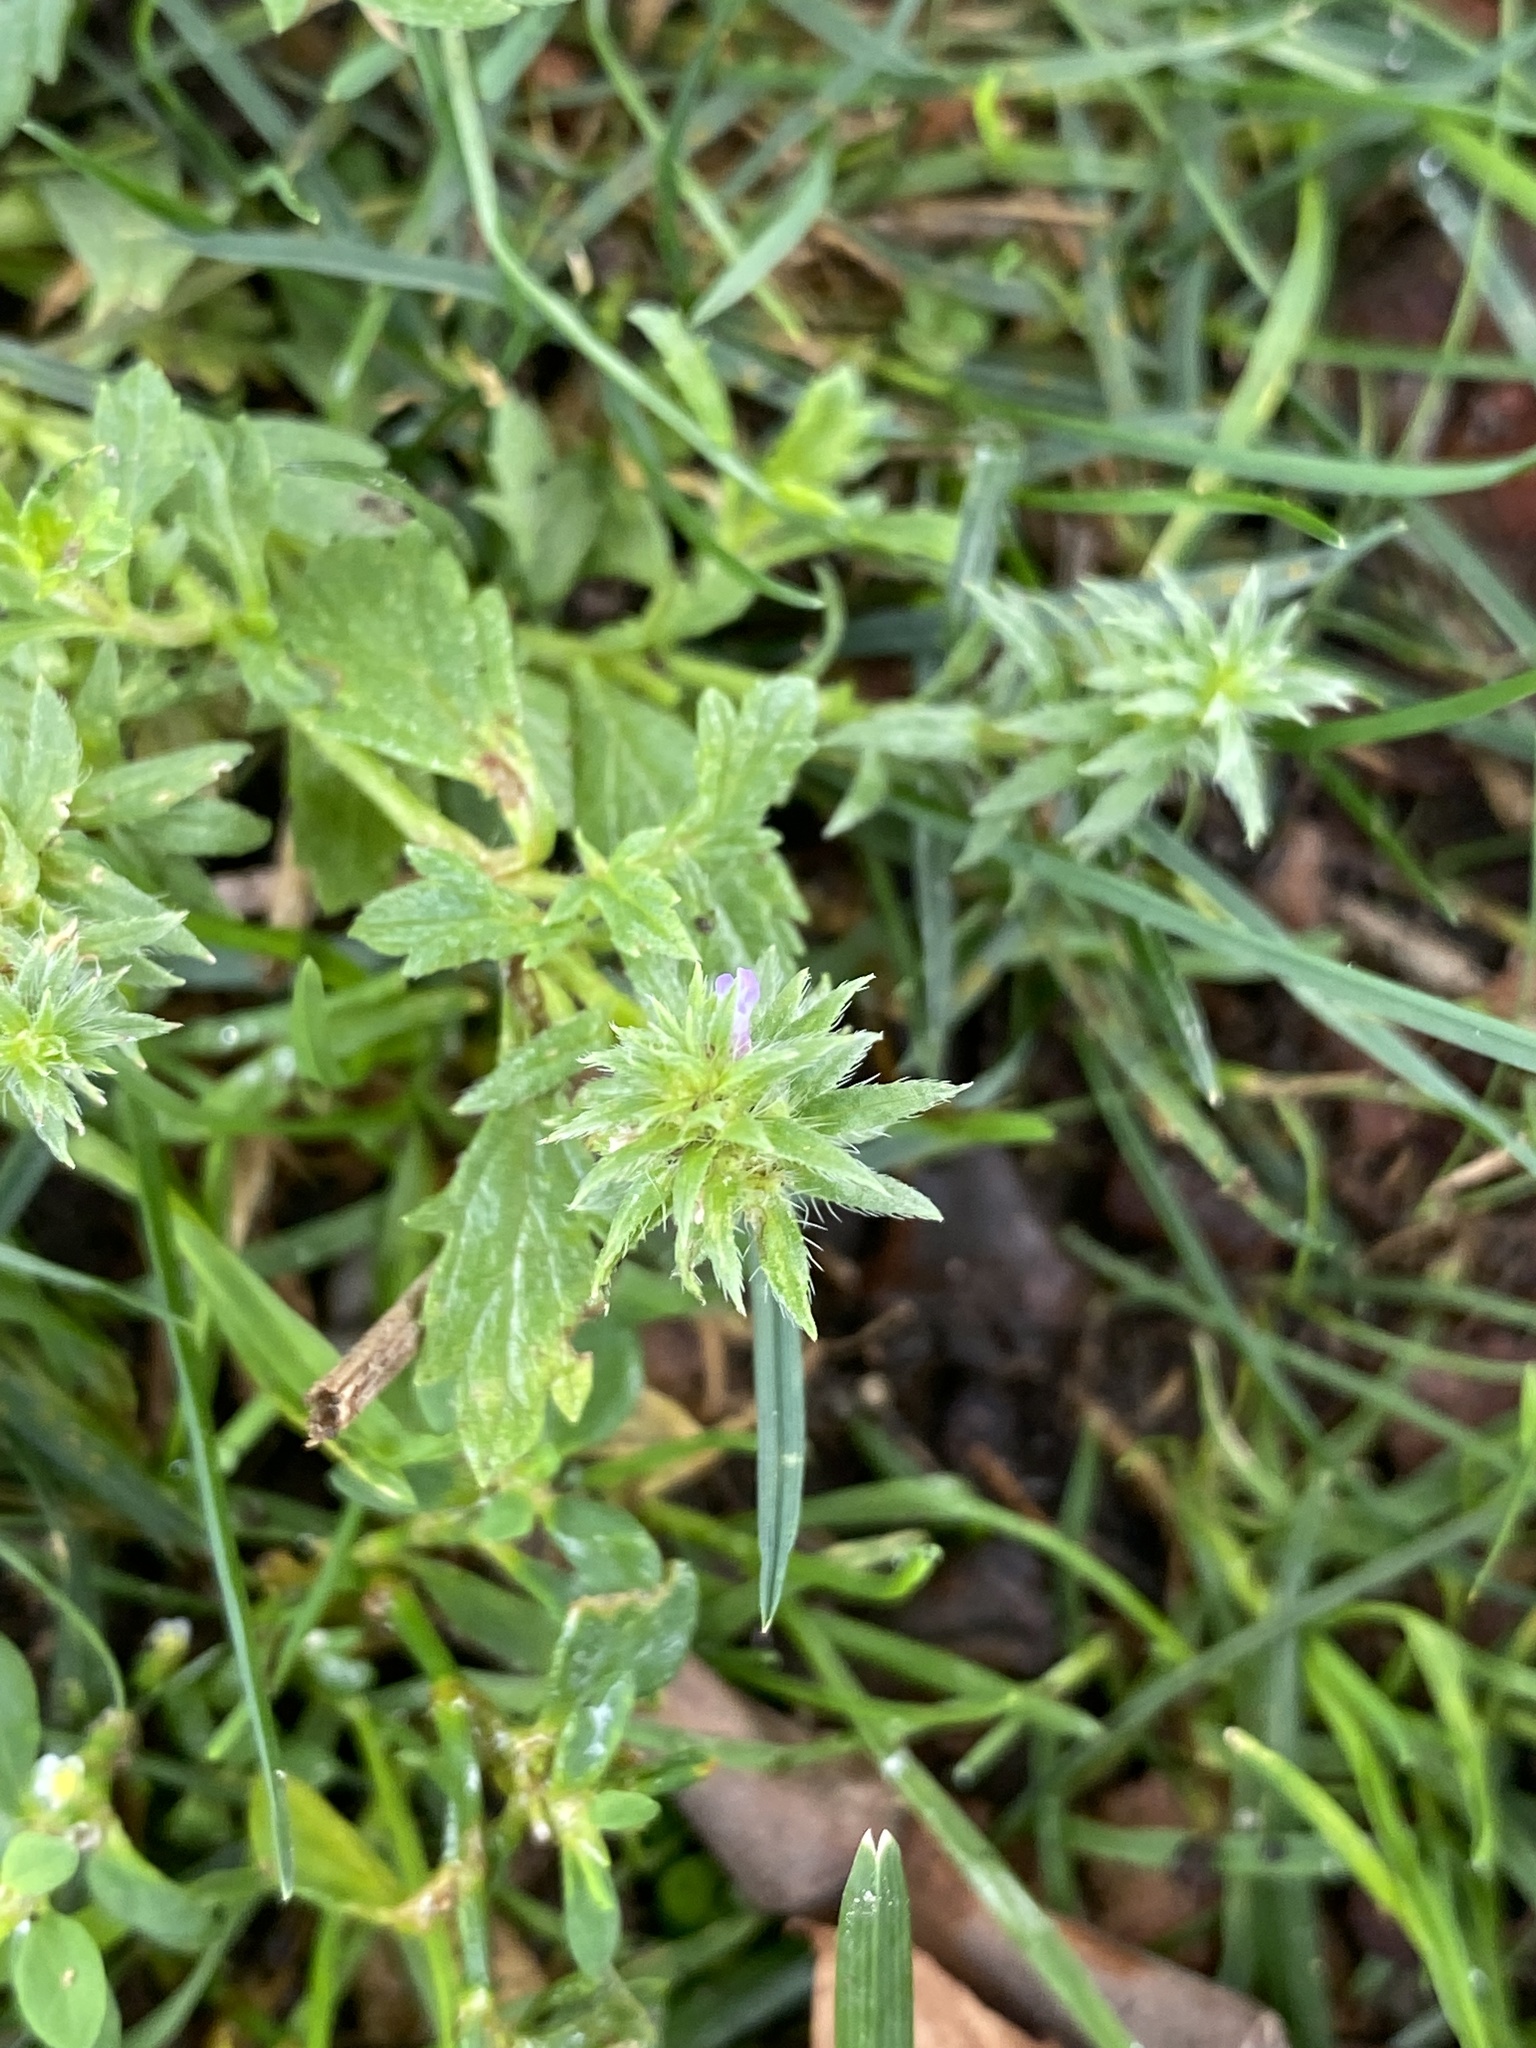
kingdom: Plantae
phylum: Tracheophyta
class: Magnoliopsida
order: Lamiales
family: Verbenaceae
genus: Verbena
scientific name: Verbena bracteata
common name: Bracted vervain
